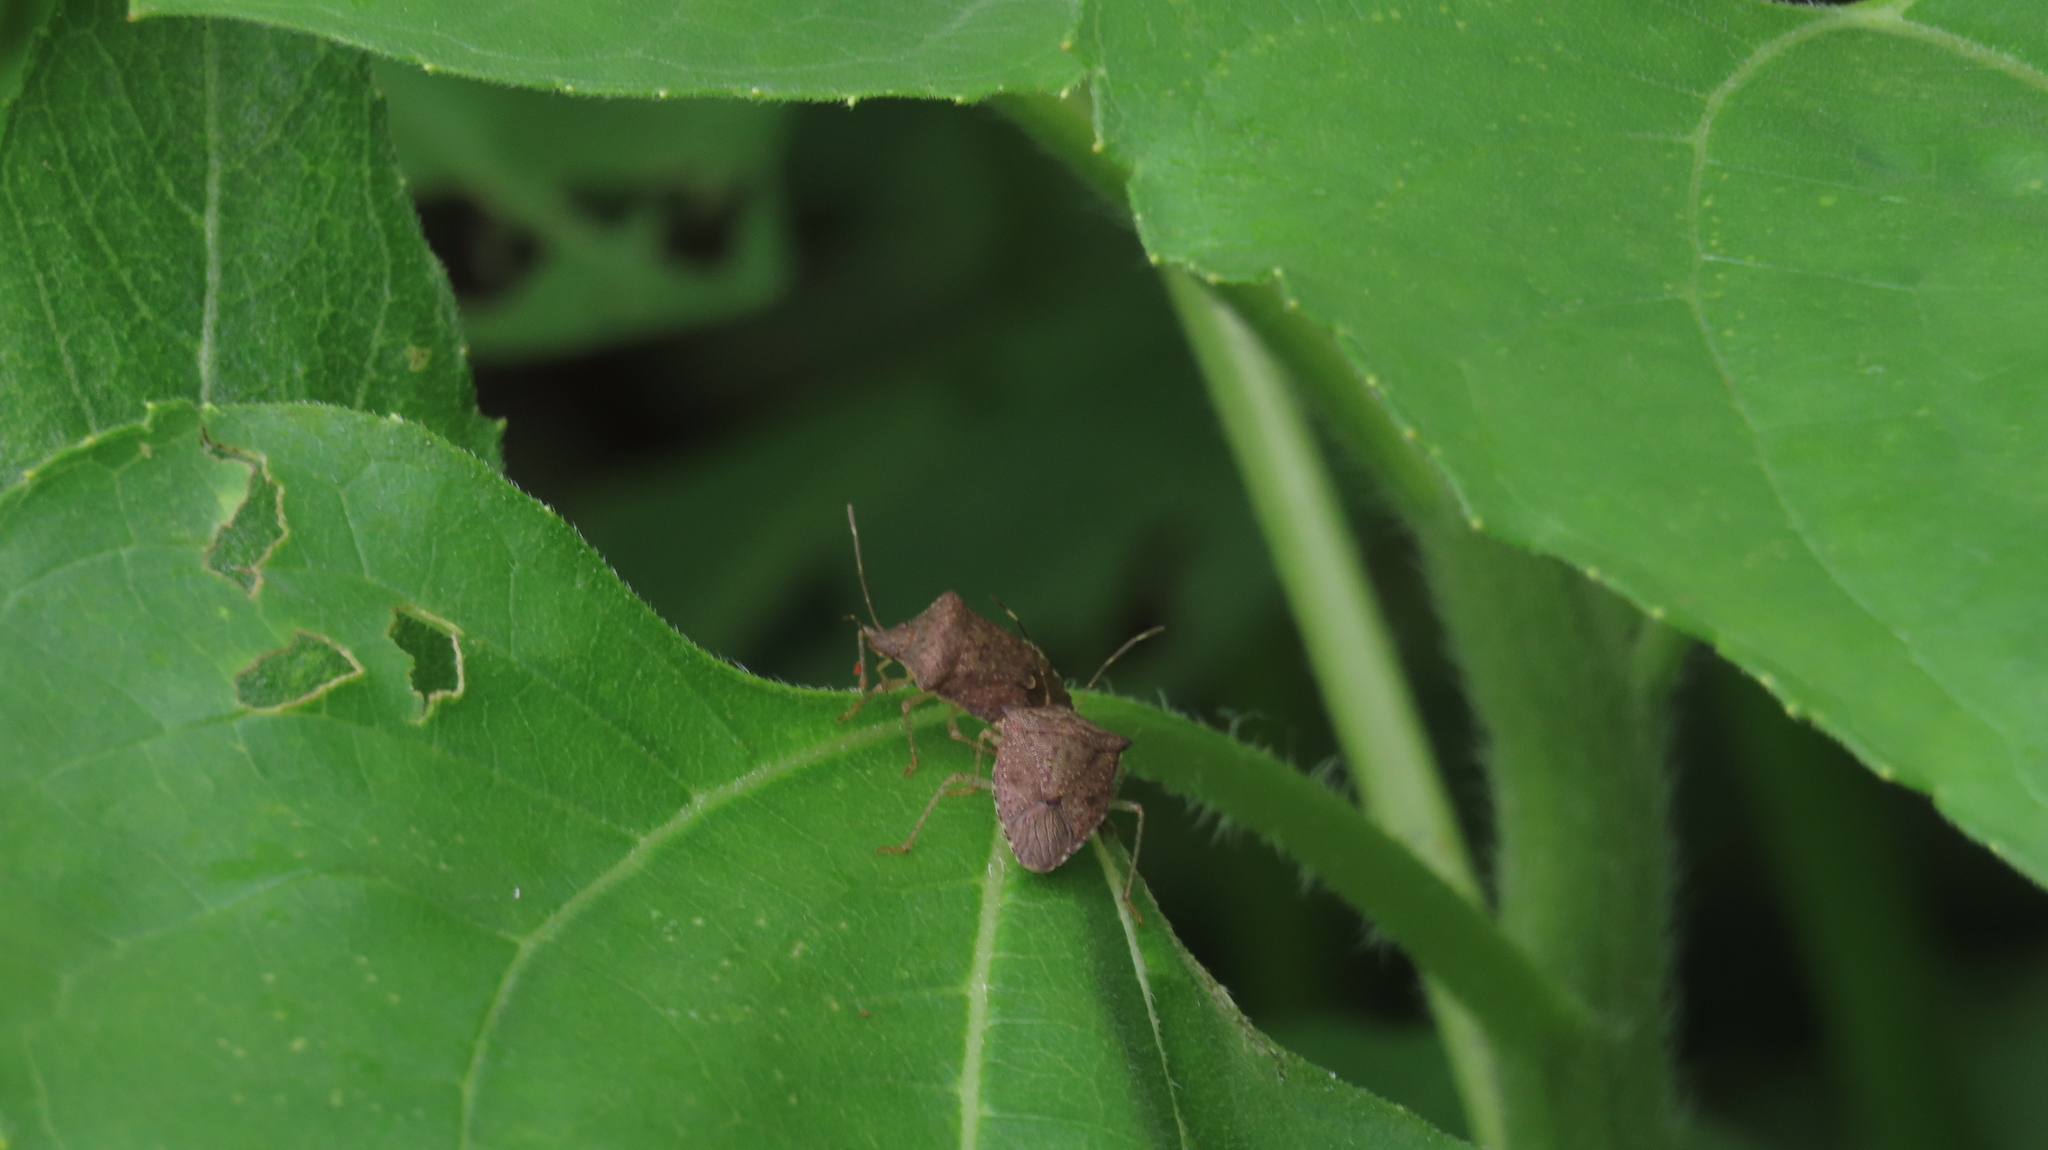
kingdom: Animalia
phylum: Arthropoda
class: Insecta
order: Hemiptera
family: Pentatomidae
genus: Euschistus
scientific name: Euschistus obscurus
